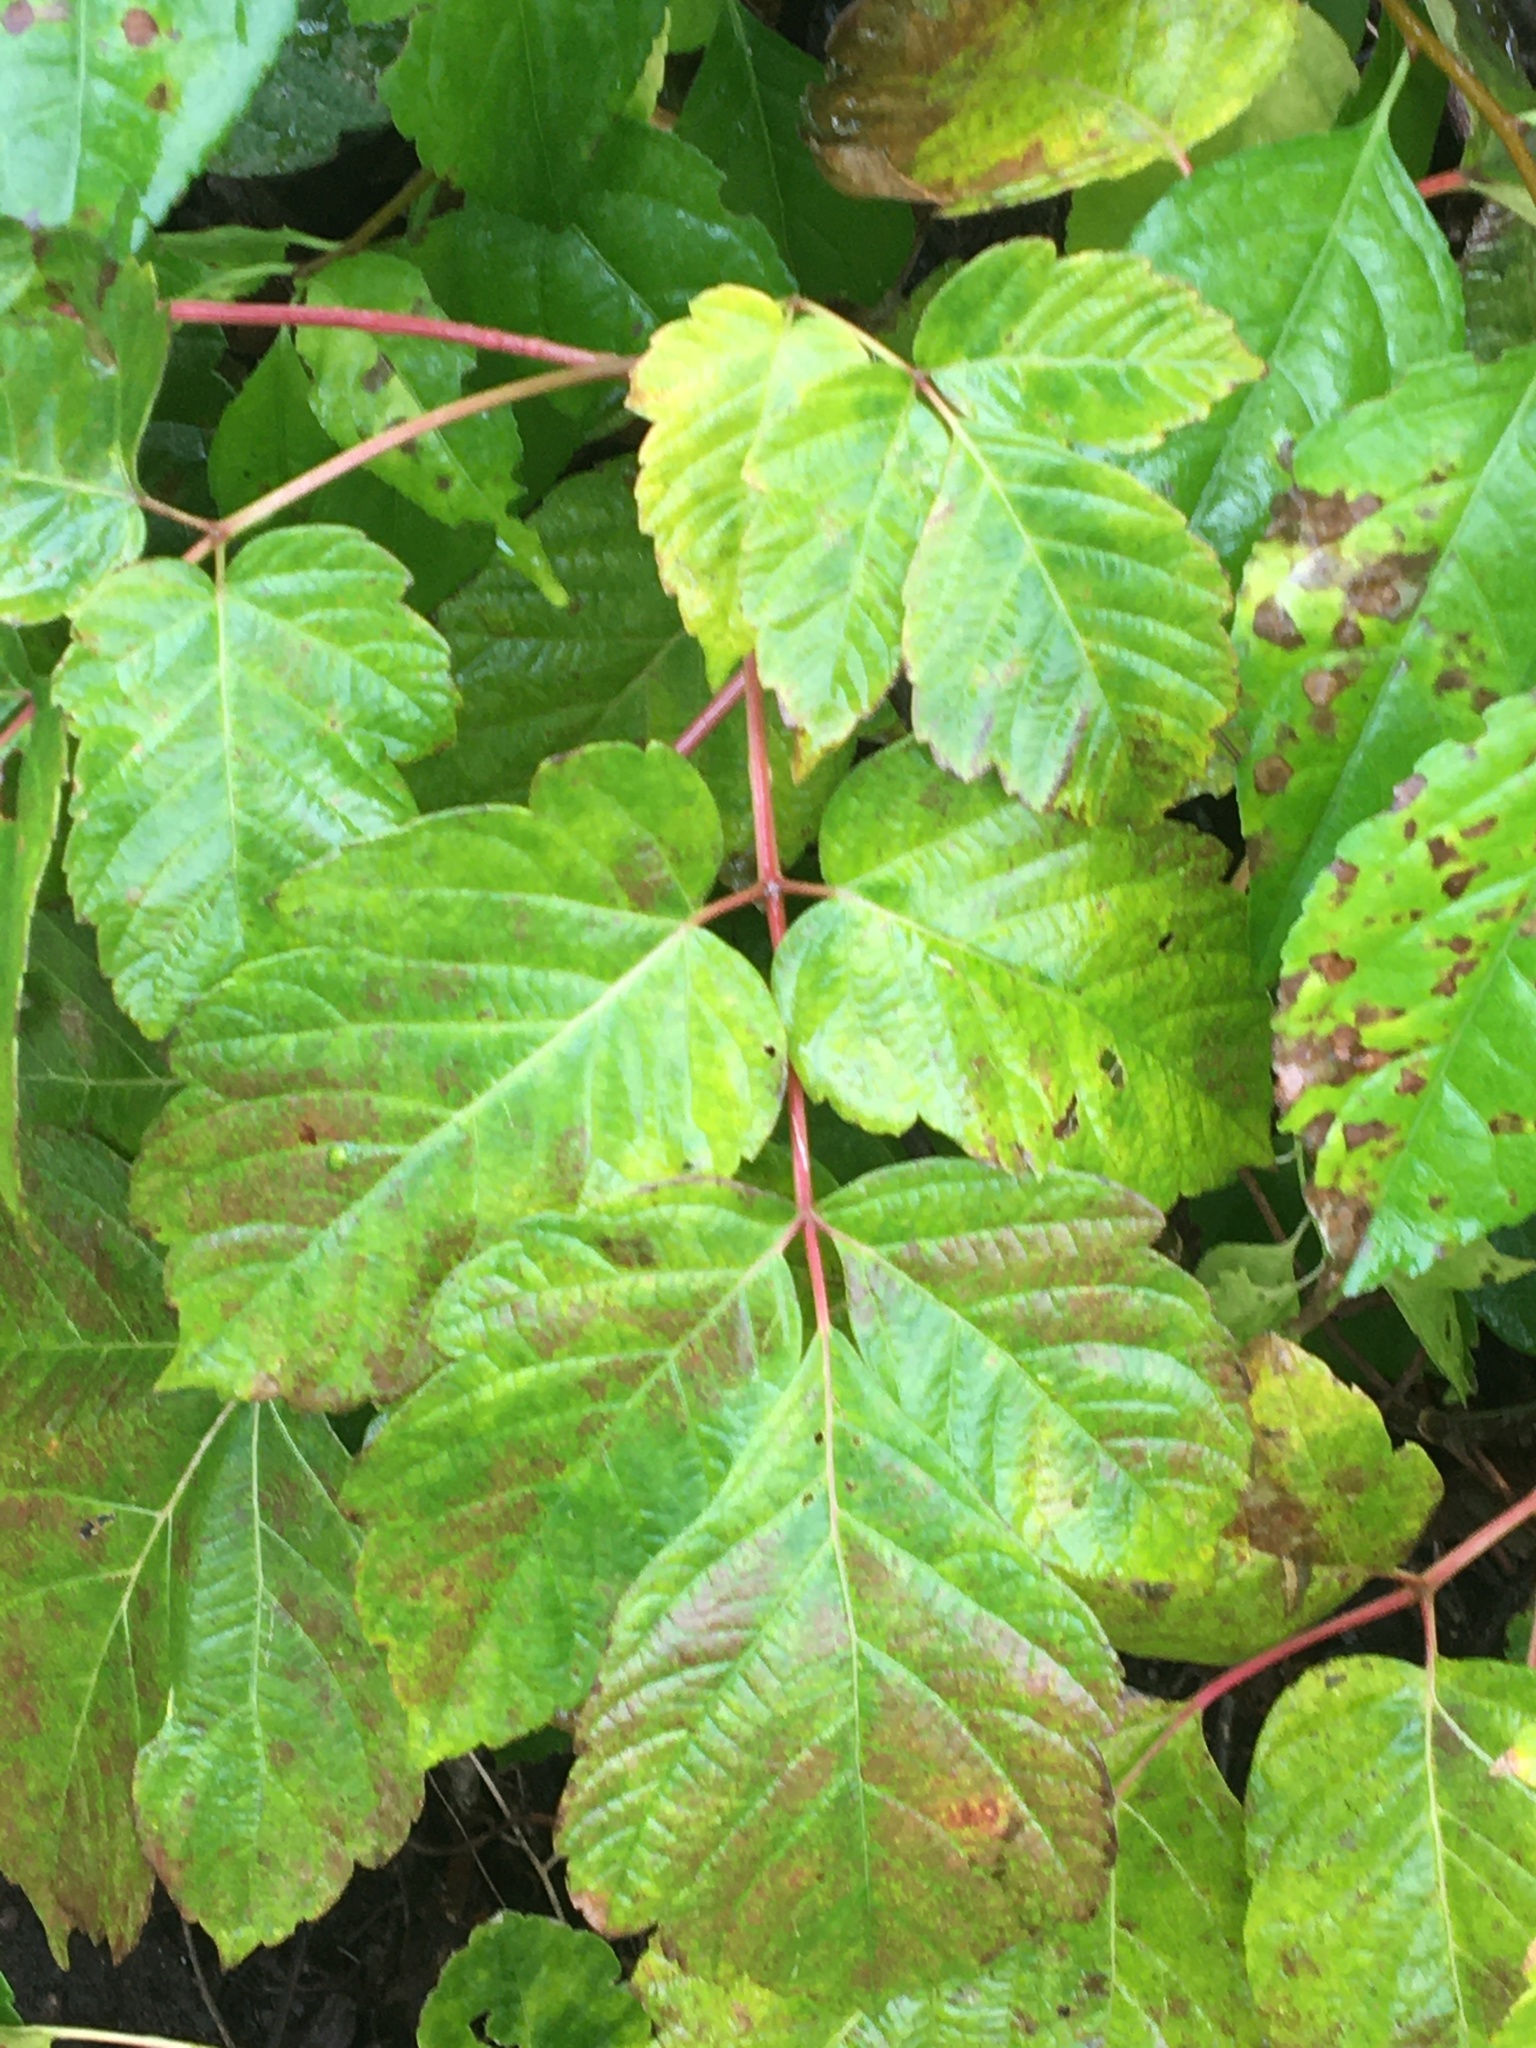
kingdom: Plantae
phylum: Tracheophyta
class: Magnoliopsida
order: Sapindales
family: Sapindaceae
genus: Acer
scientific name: Acer negundo
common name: Ashleaf maple
